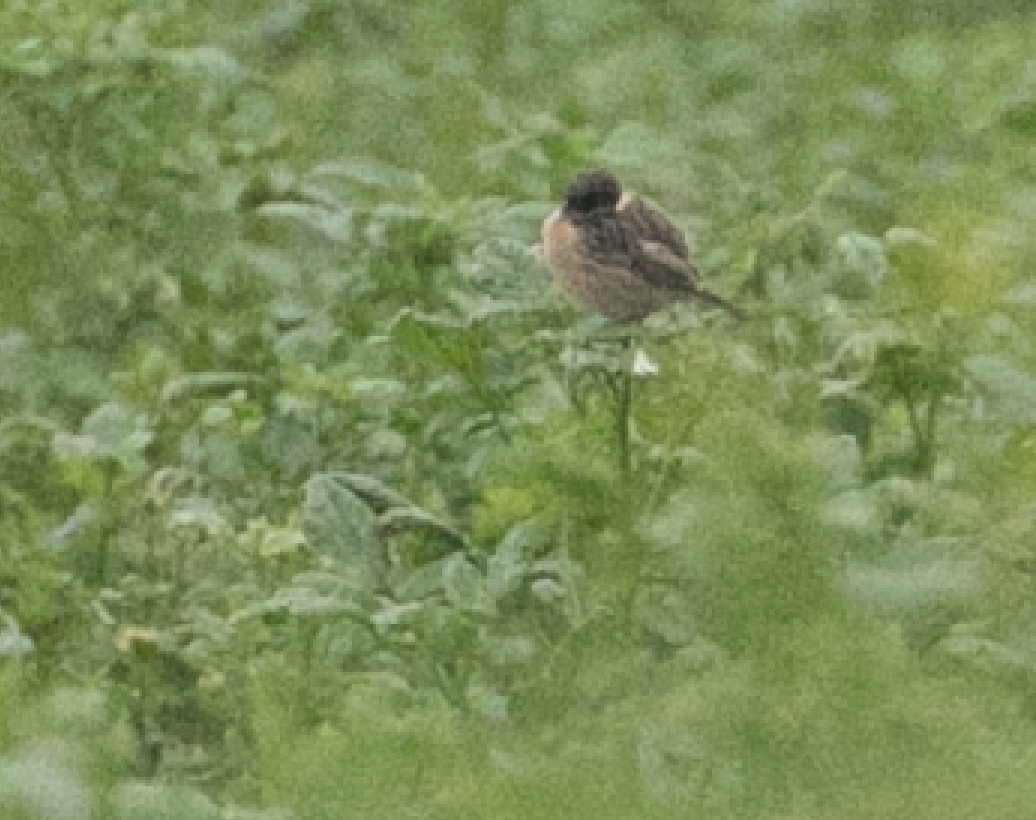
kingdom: Animalia
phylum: Chordata
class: Aves
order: Passeriformes
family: Muscicapidae
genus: Saxicola
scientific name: Saxicola rubicola
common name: European stonechat
